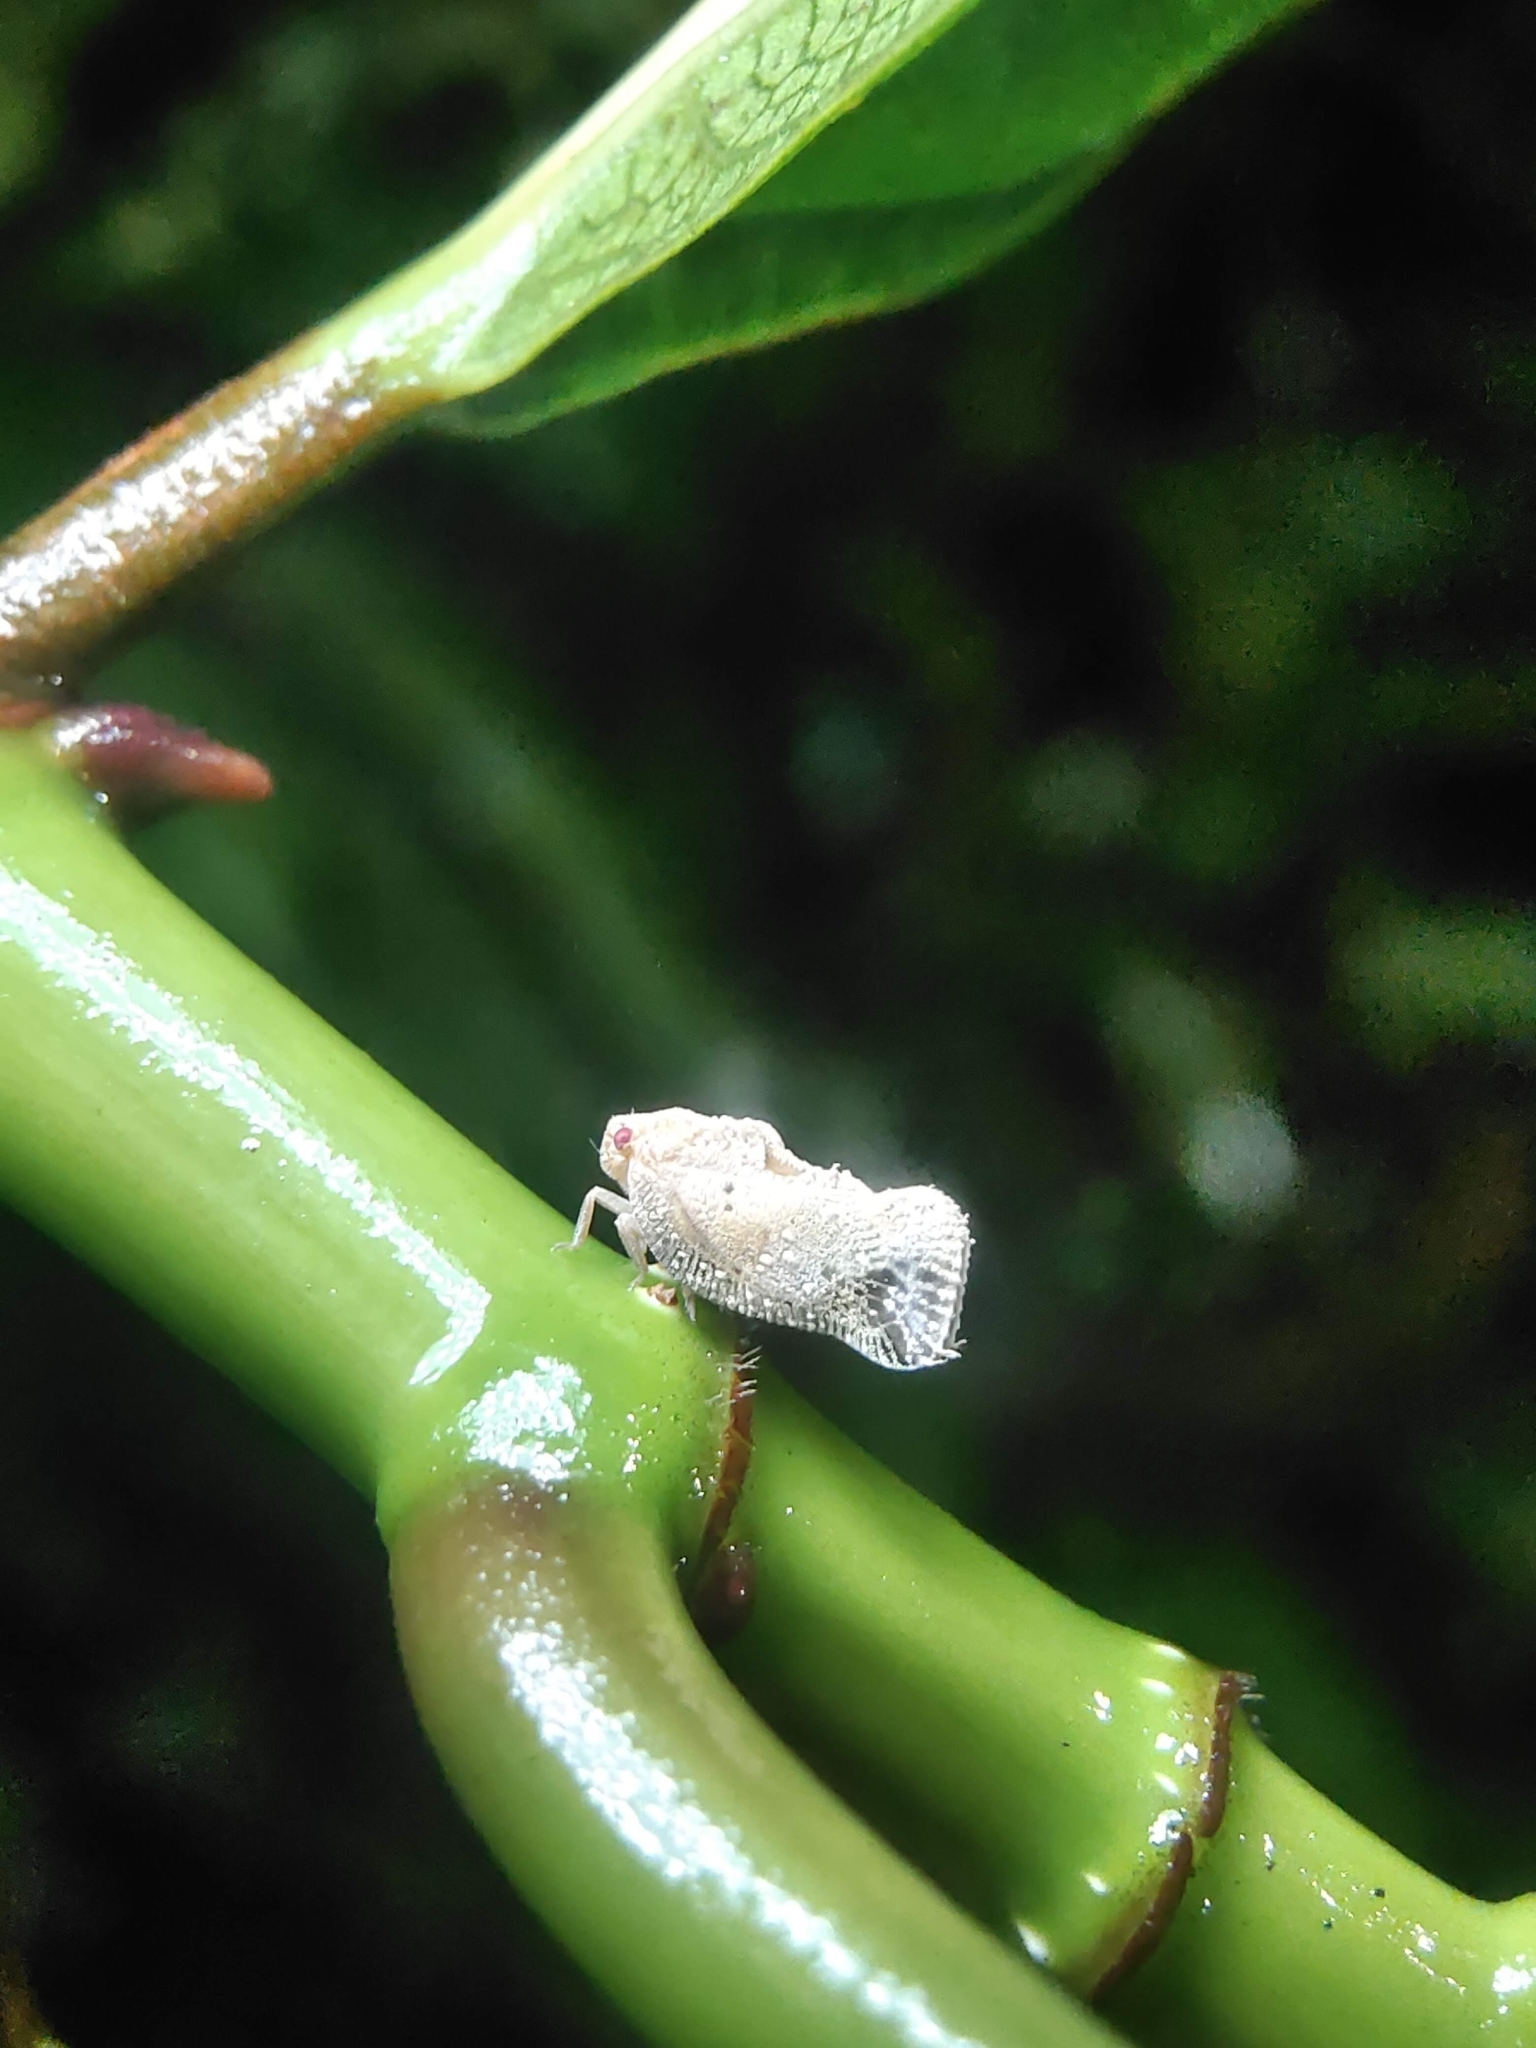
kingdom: Animalia
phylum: Arthropoda
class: Insecta
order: Hemiptera
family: Flatidae
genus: Seliza
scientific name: Seliza vidua
